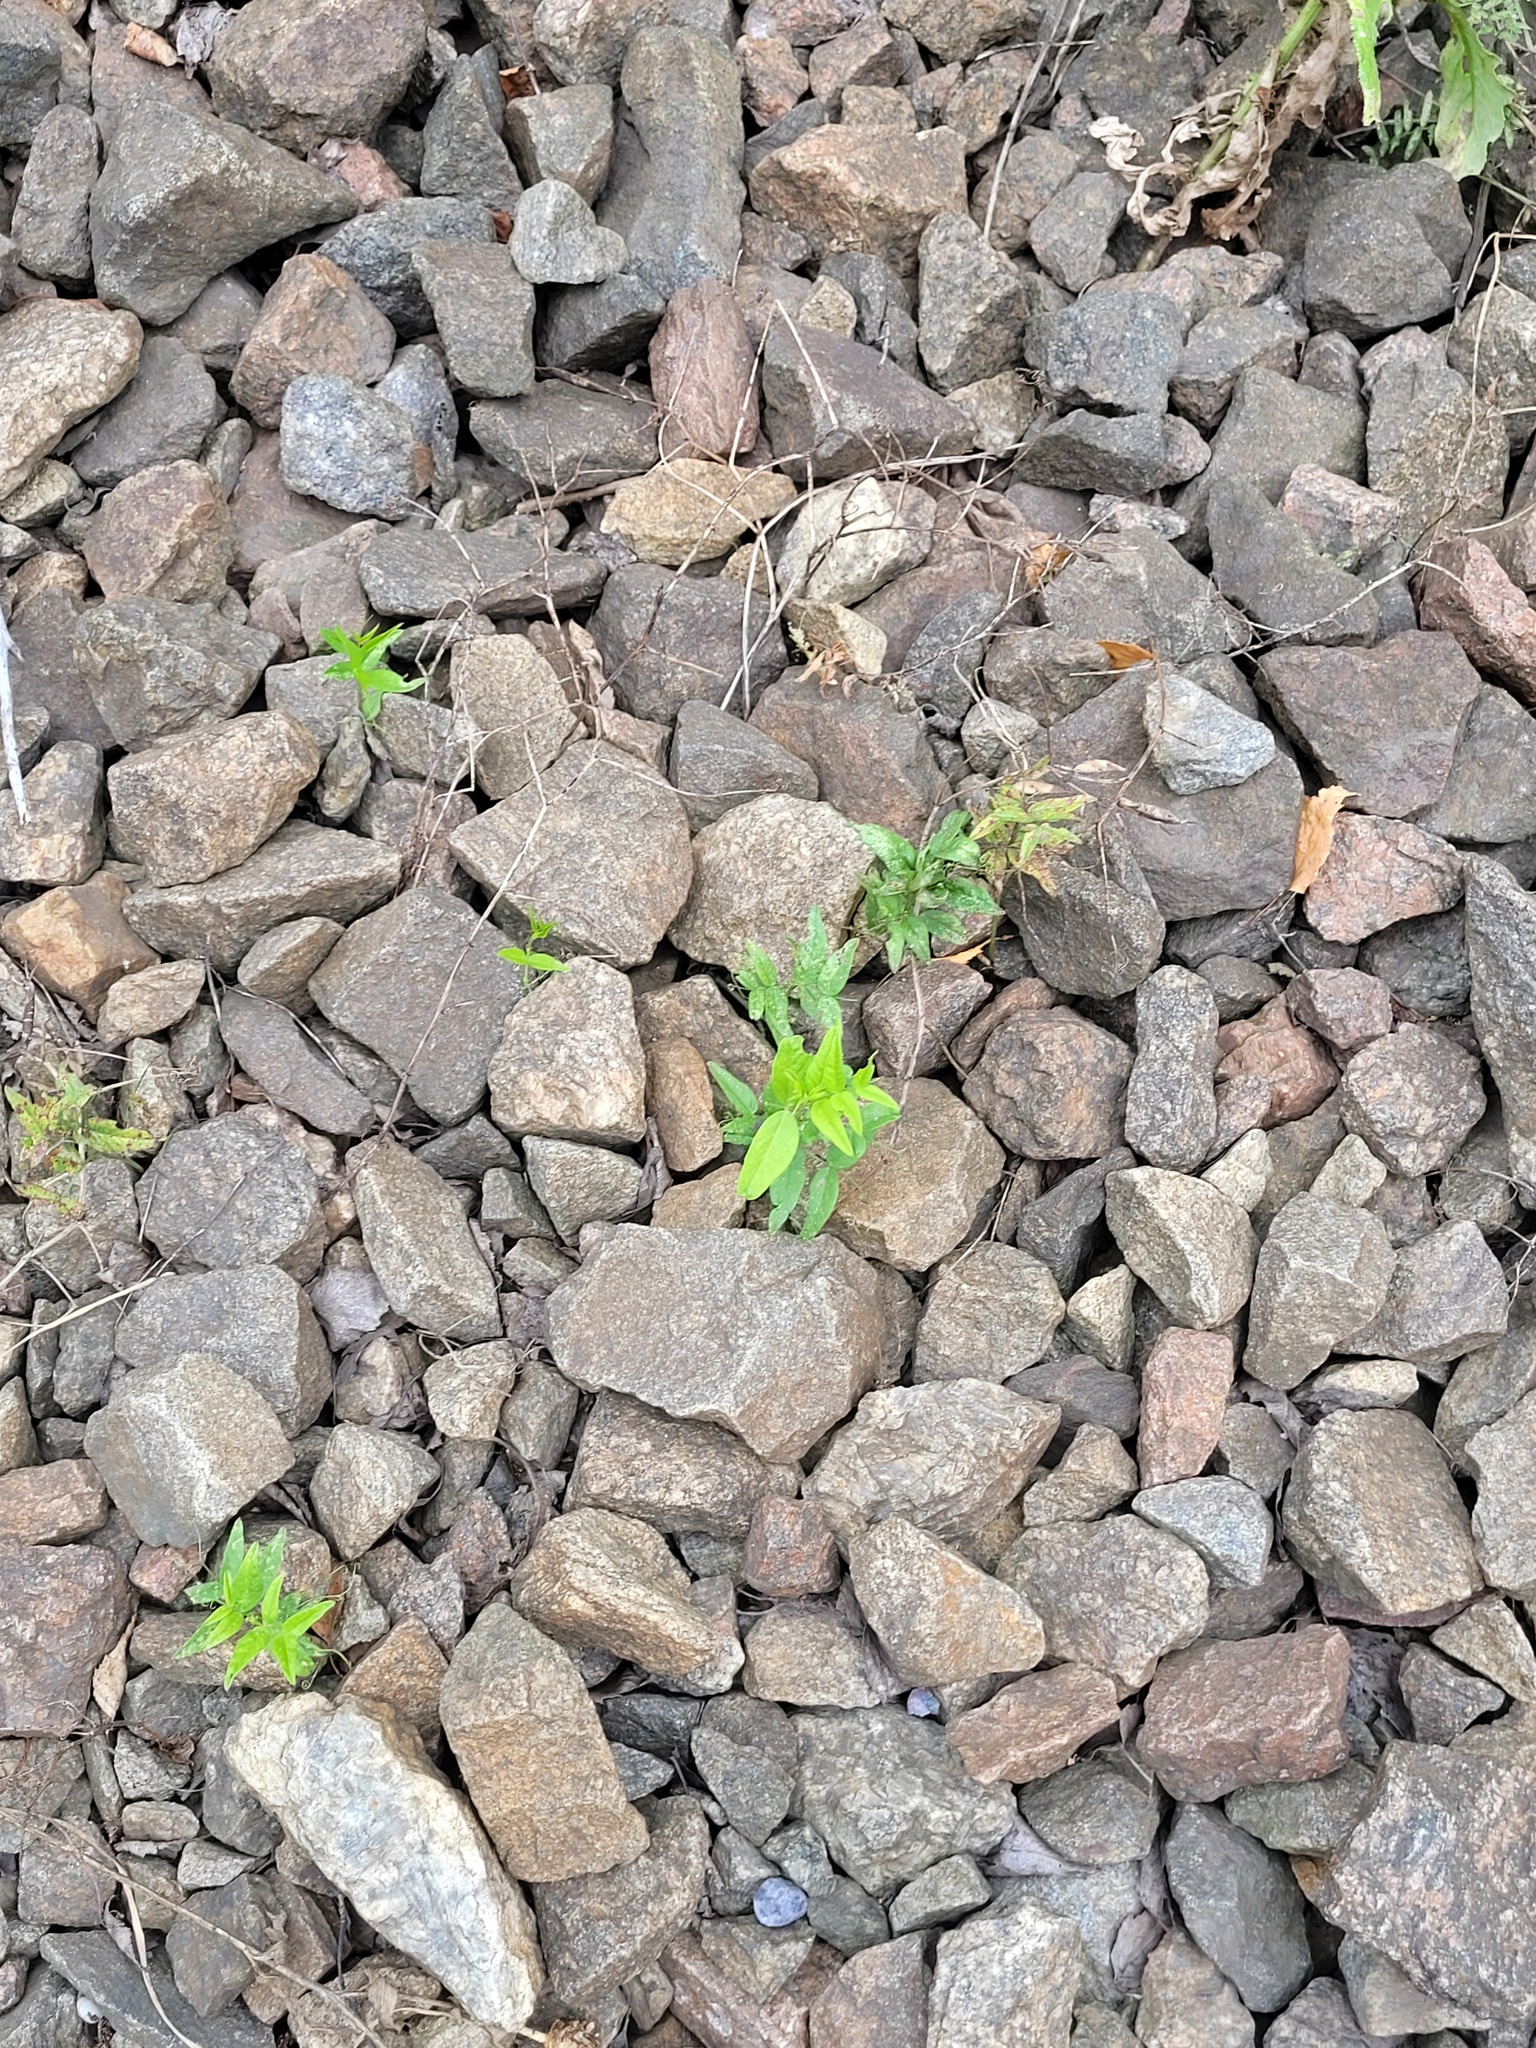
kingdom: Plantae
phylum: Tracheophyta
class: Magnoliopsida
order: Fabales
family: Fabaceae
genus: Vicia
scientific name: Vicia sepium
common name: Bush vetch
